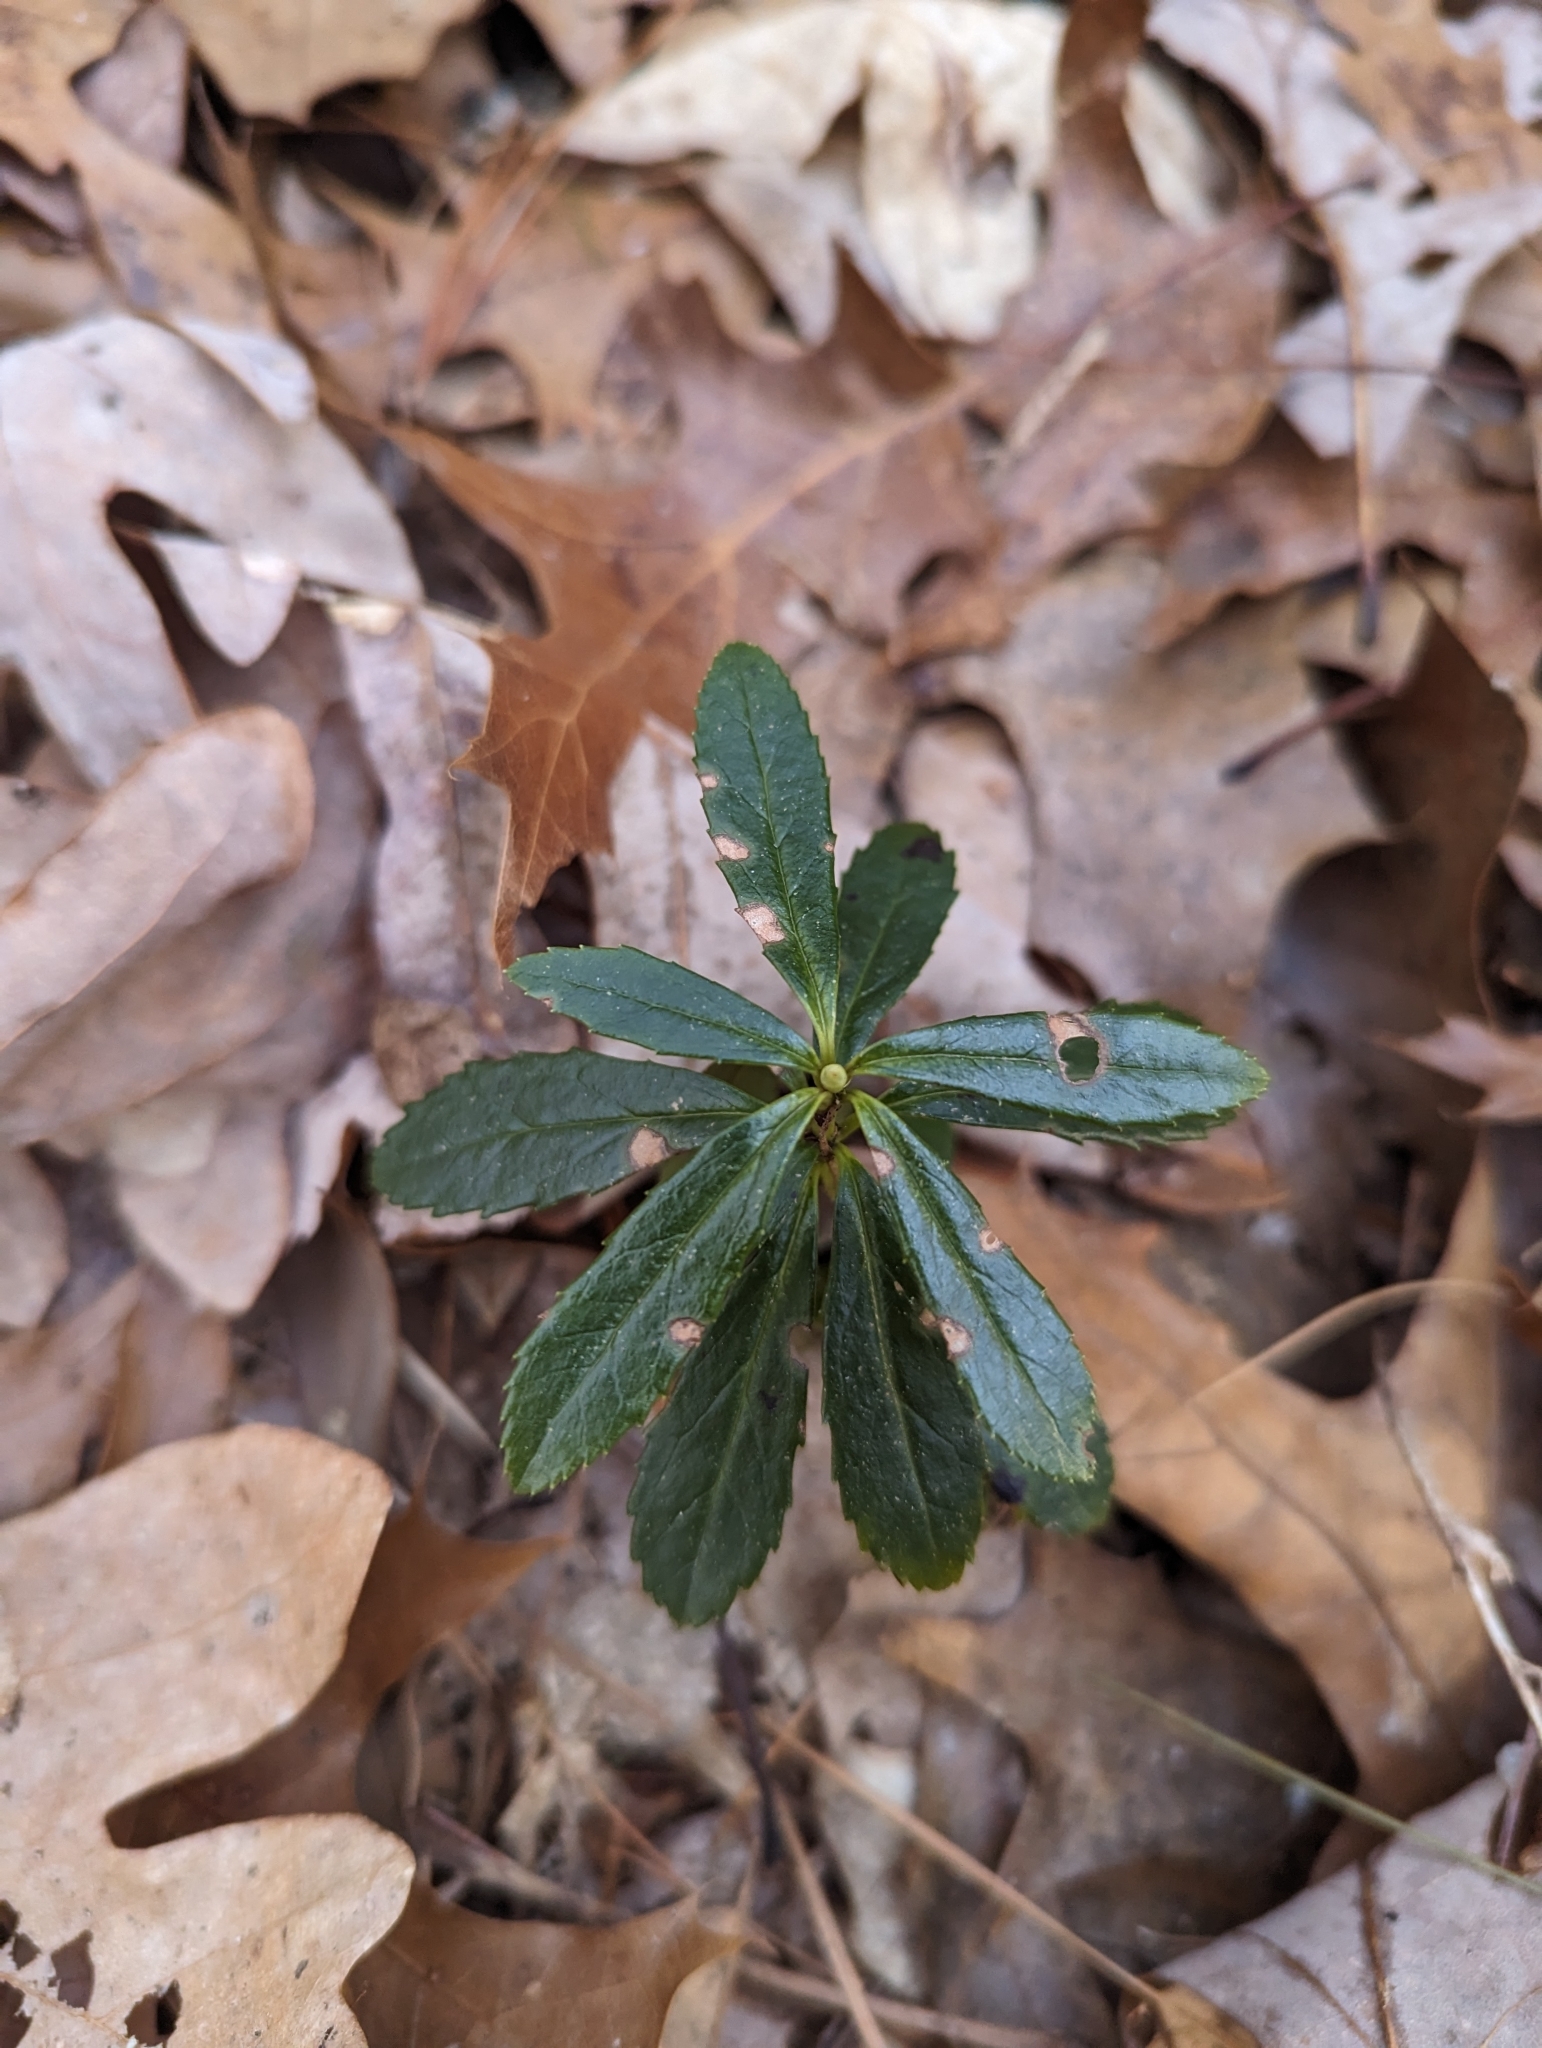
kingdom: Plantae
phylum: Tracheophyta
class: Magnoliopsida
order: Ericales
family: Ericaceae
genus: Chimaphila
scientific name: Chimaphila umbellata
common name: Pipsissewa
